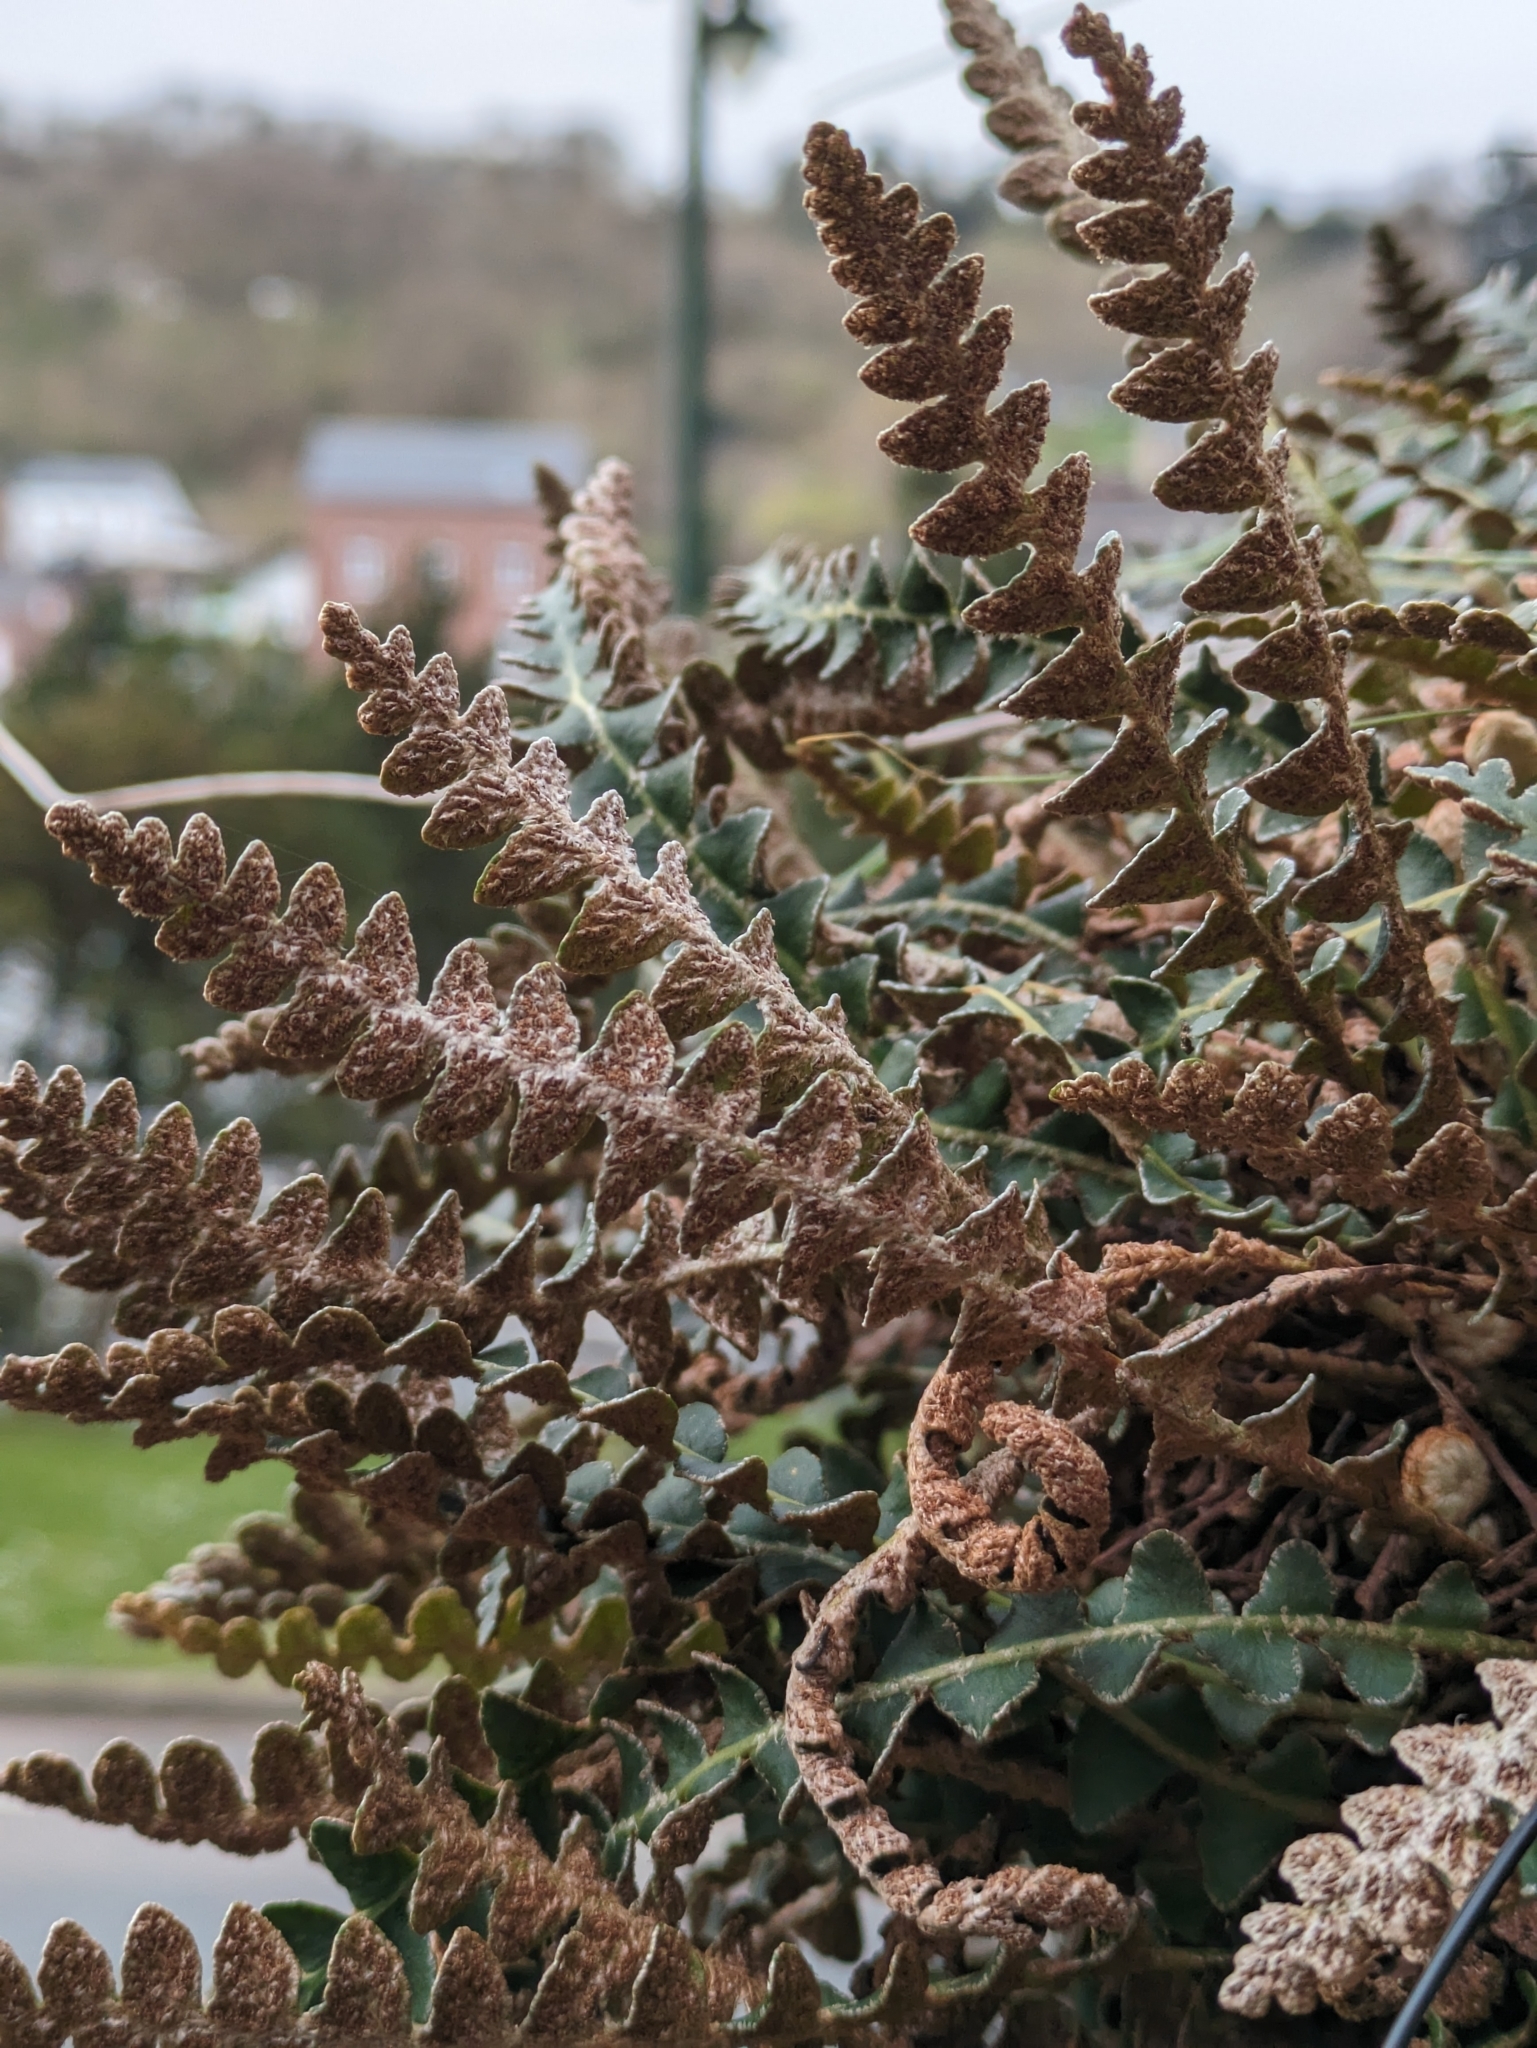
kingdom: Plantae
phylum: Tracheophyta
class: Polypodiopsida
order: Polypodiales
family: Aspleniaceae
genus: Asplenium
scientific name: Asplenium ceterach
